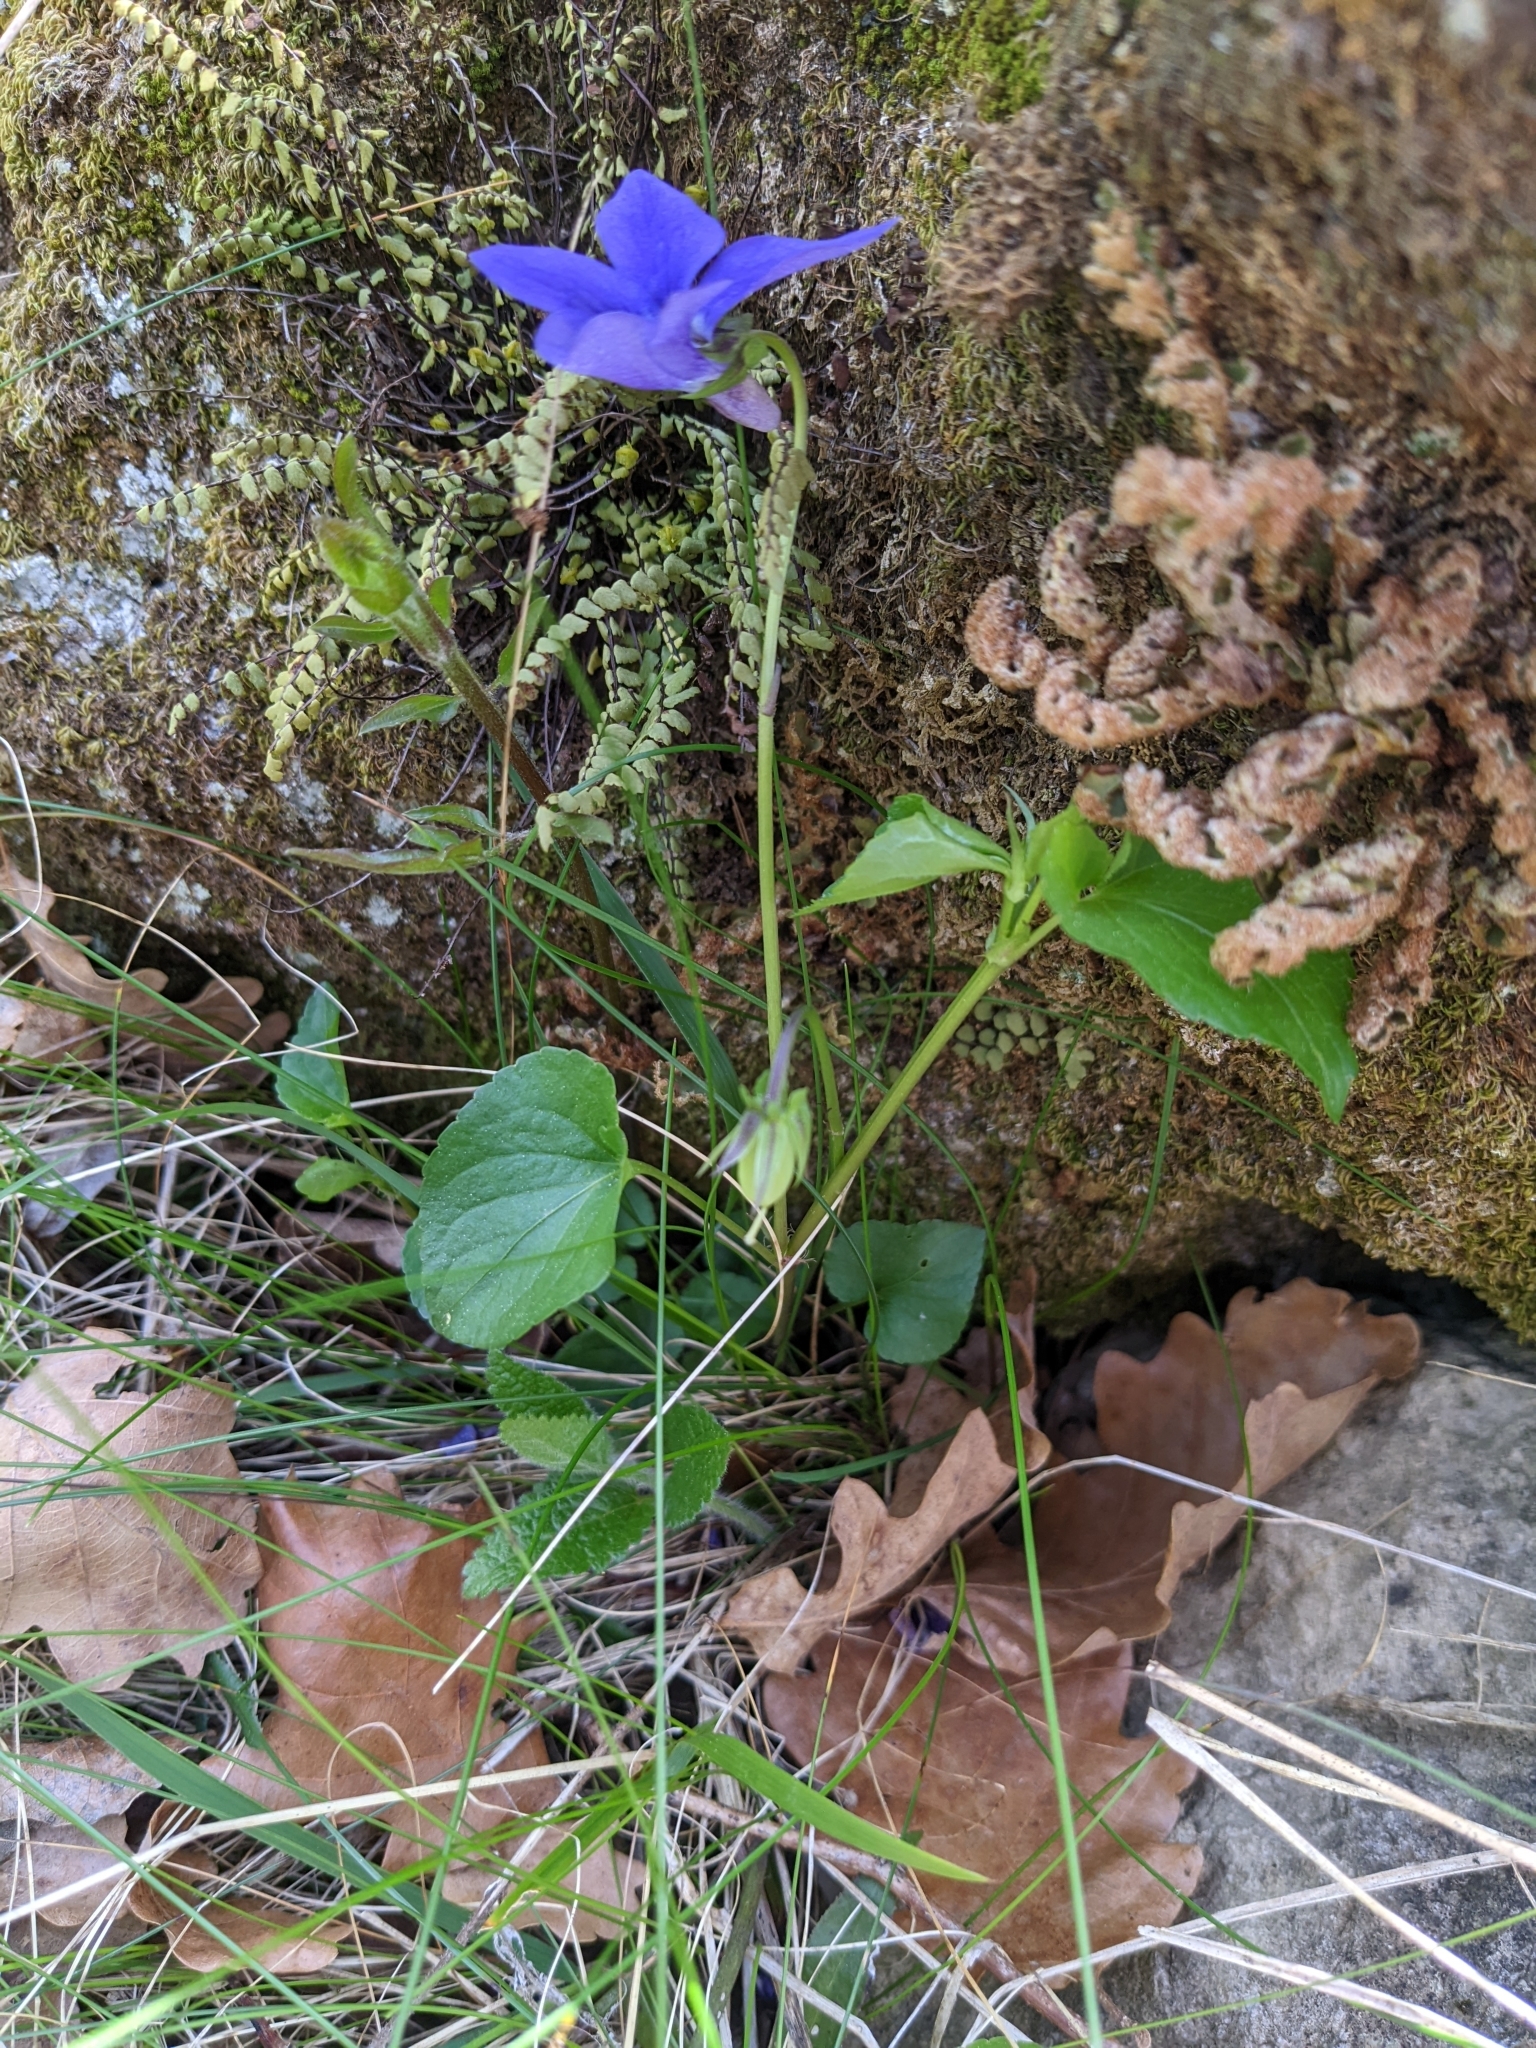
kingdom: Plantae
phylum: Tracheophyta
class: Magnoliopsida
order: Malpighiales
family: Violaceae
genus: Viola
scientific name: Viola riviniana
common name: Common dog-violet
